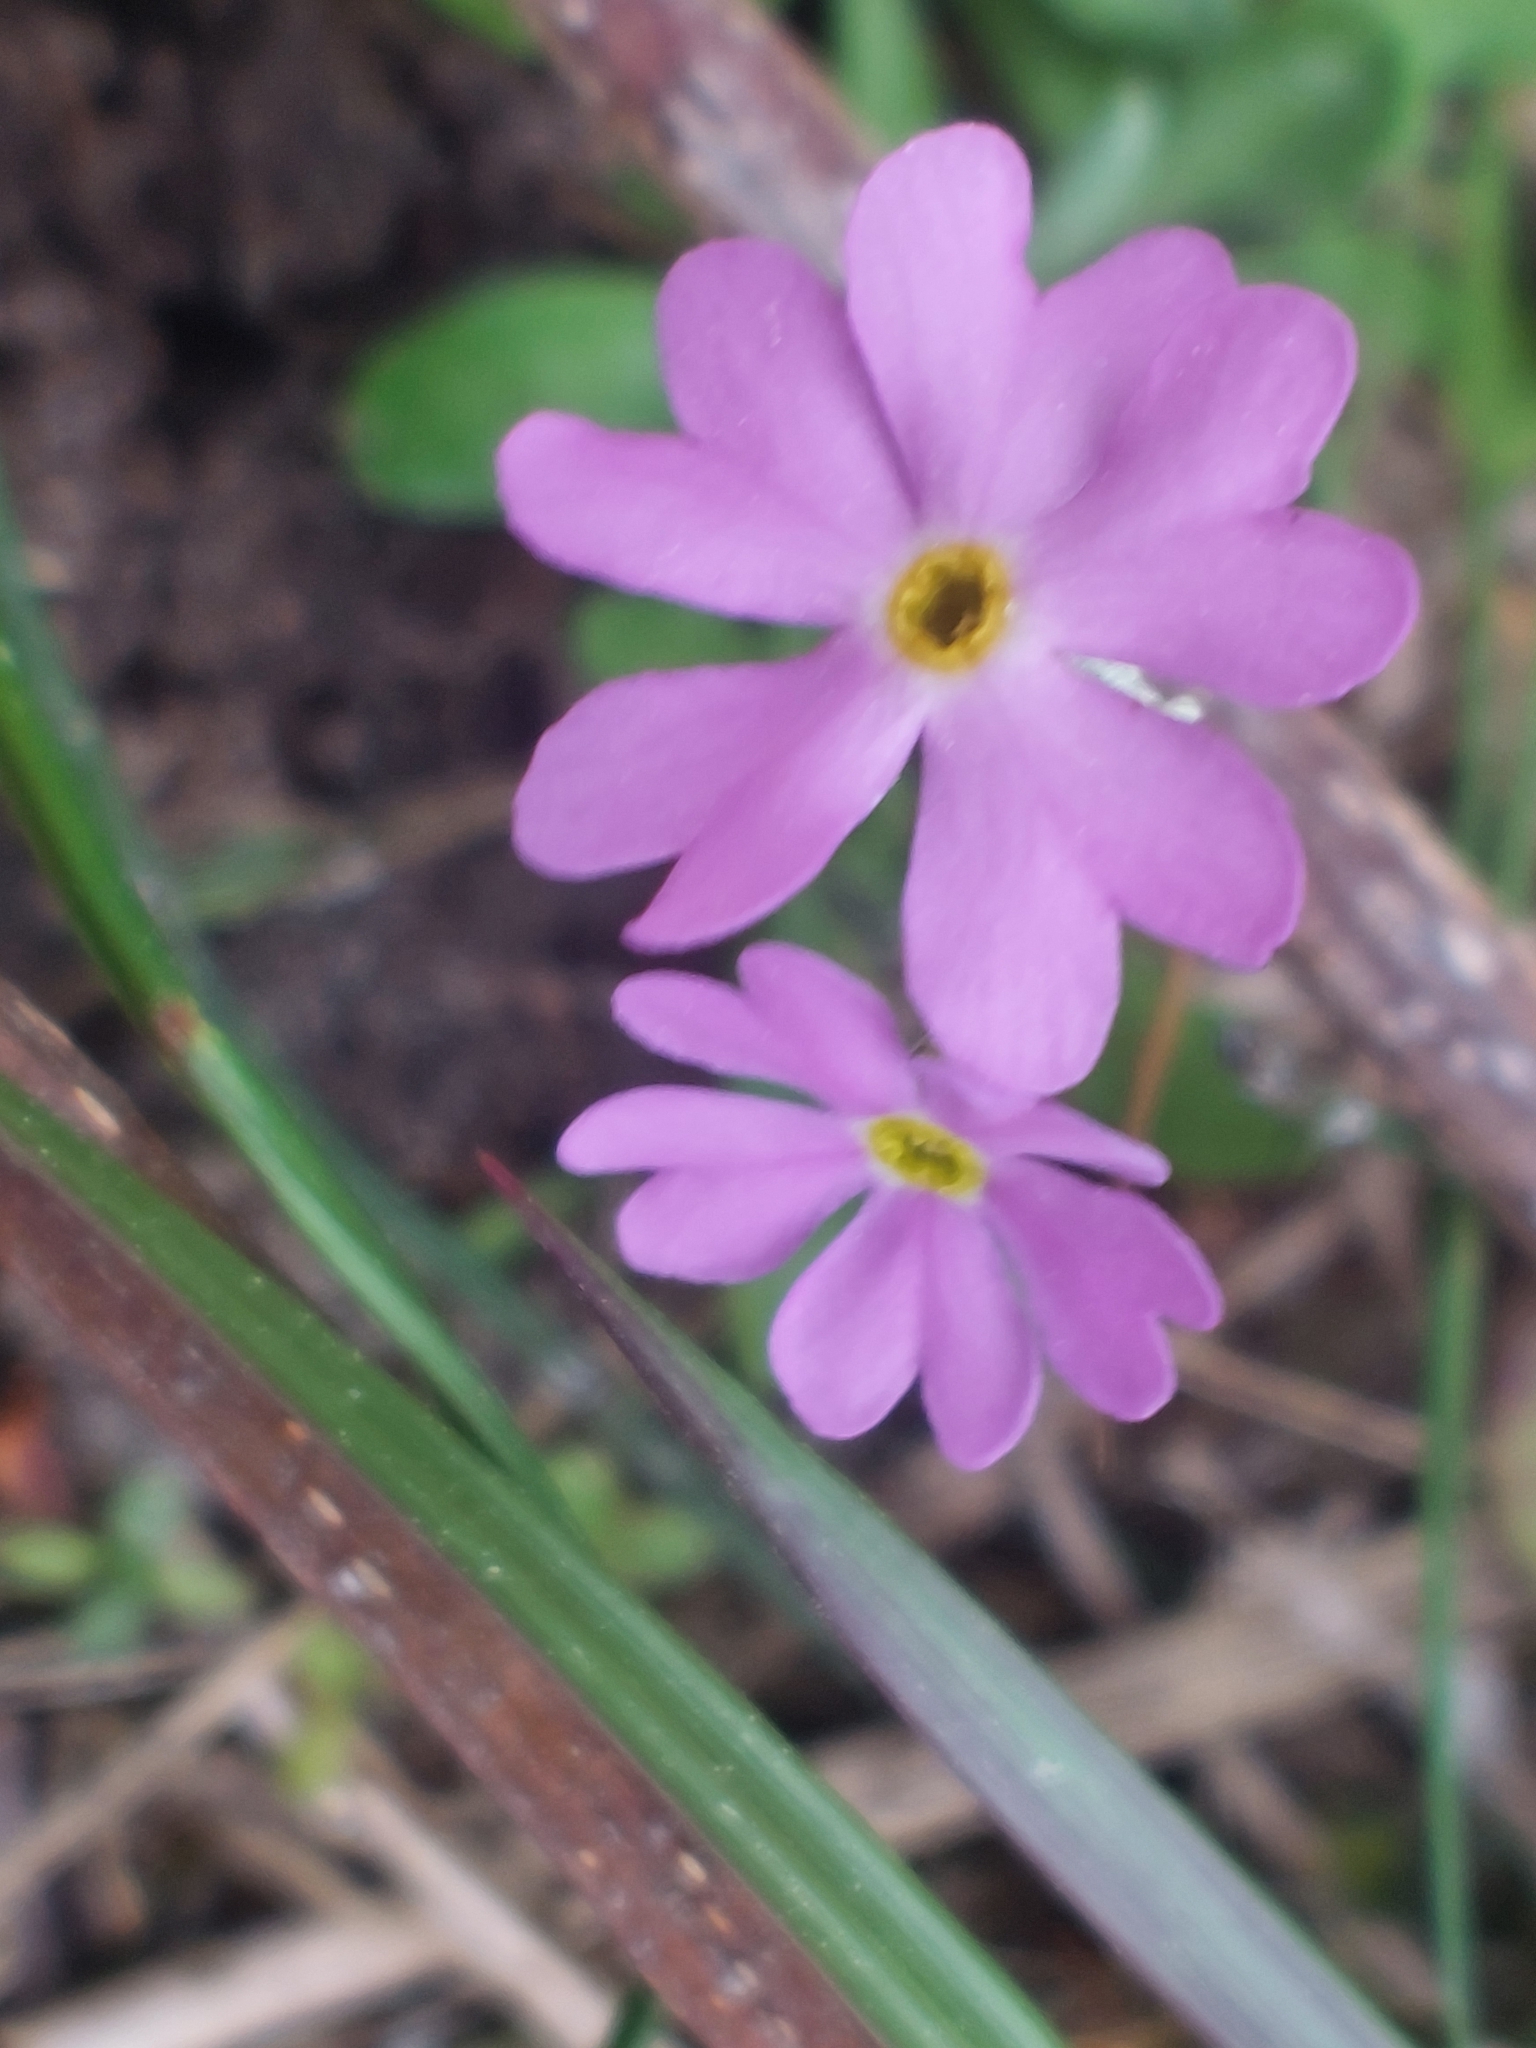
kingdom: Plantae
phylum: Tracheophyta
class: Magnoliopsida
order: Ericales
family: Primulaceae
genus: Primula
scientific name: Primula farinosa
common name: Bird's-eye primrose
